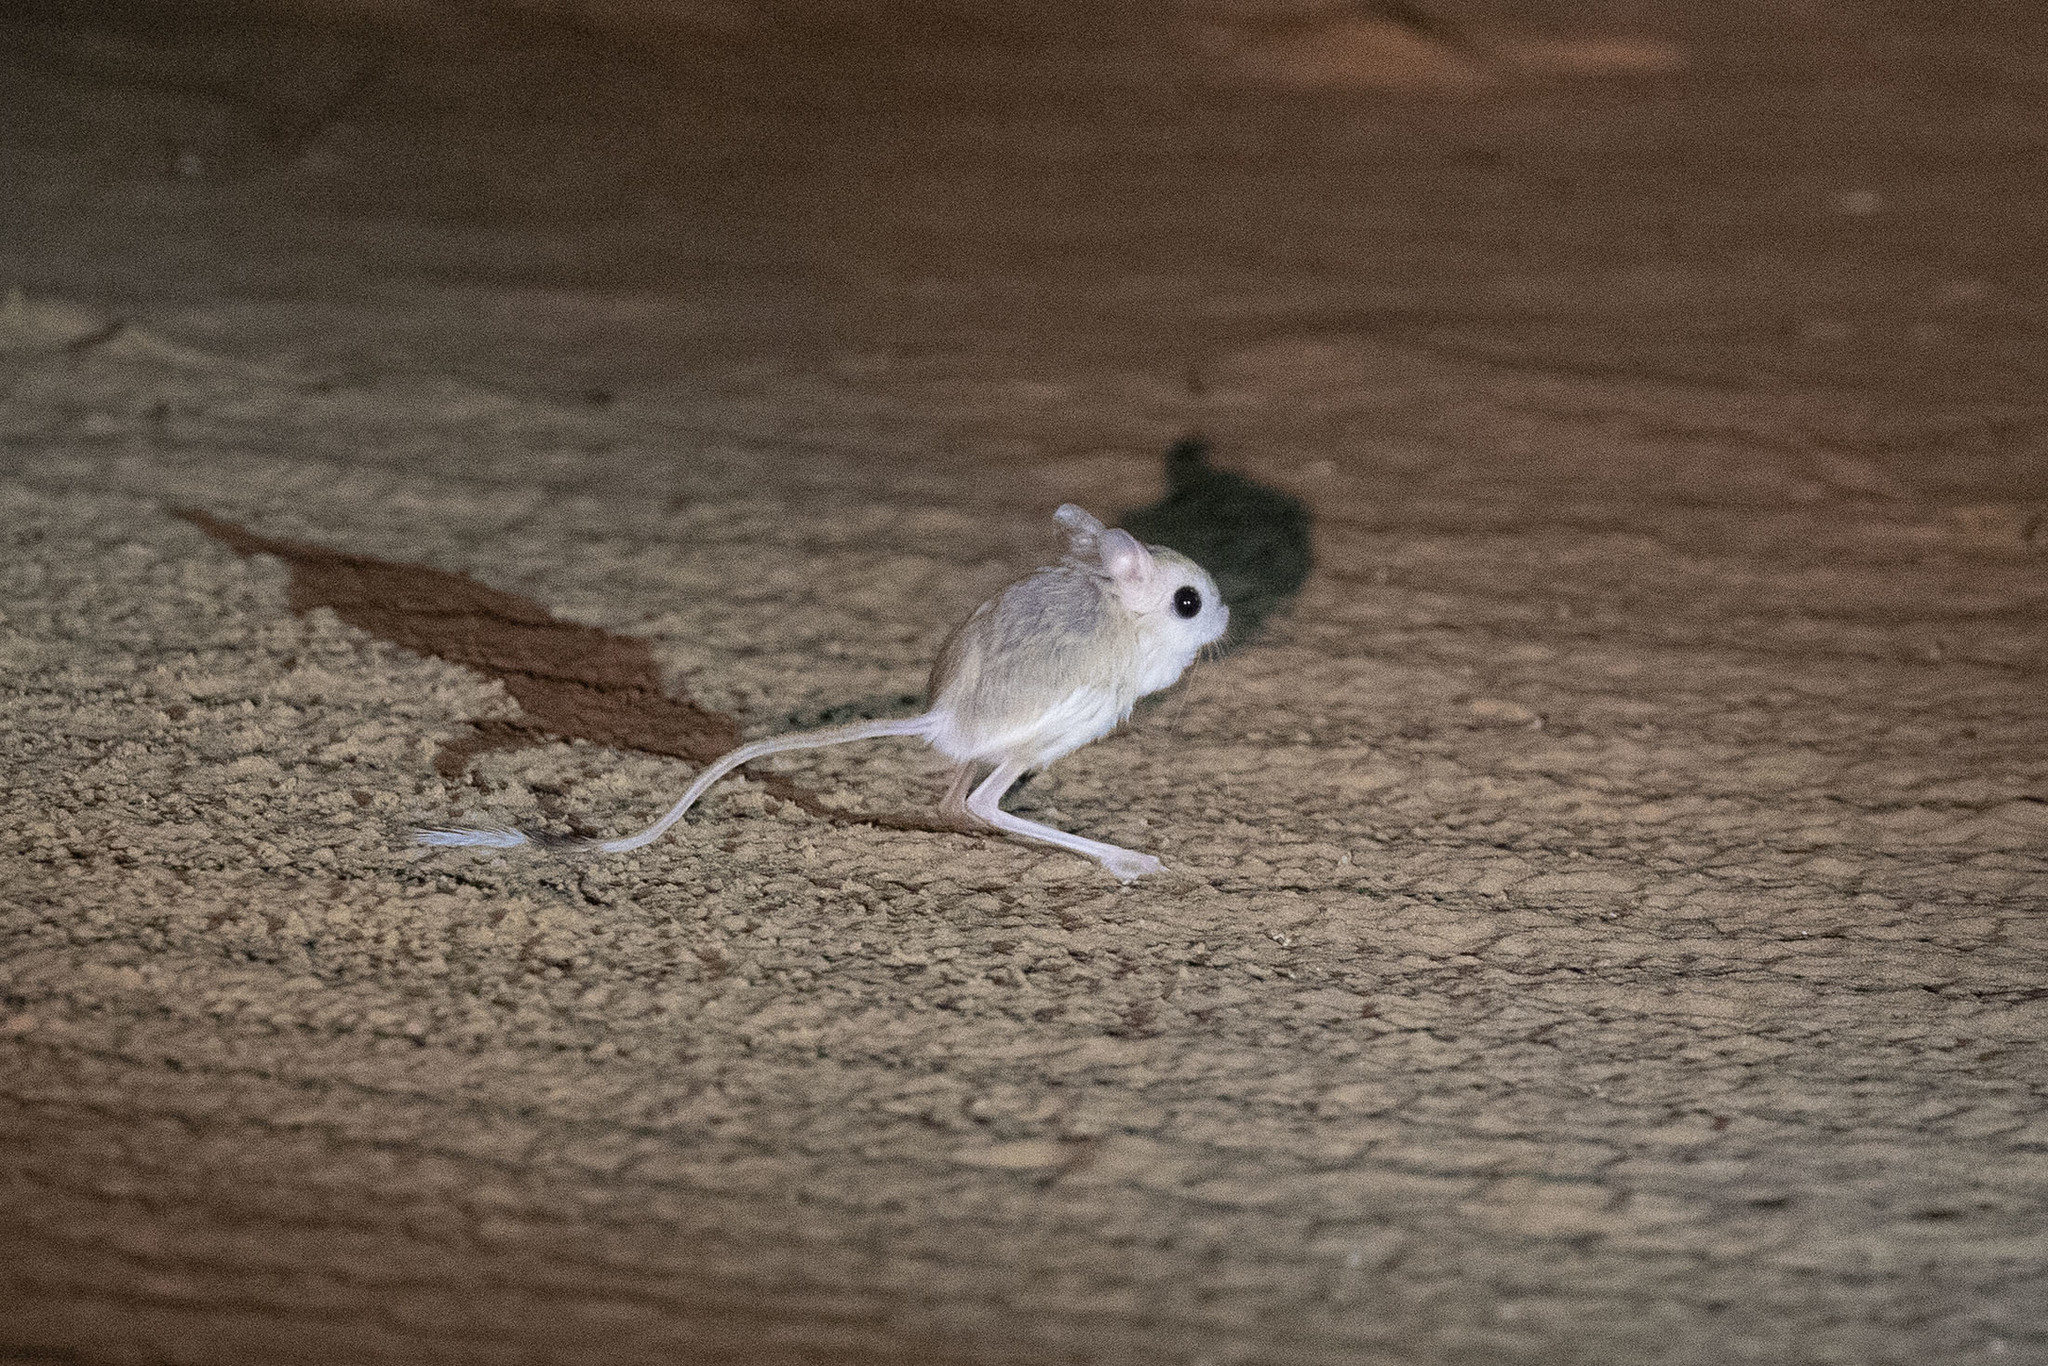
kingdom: Animalia
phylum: Chordata
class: Mammalia
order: Rodentia
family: Dipodidae
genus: Jaculus
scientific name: Jaculus jaculus
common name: Lesser egyptian jerboa
